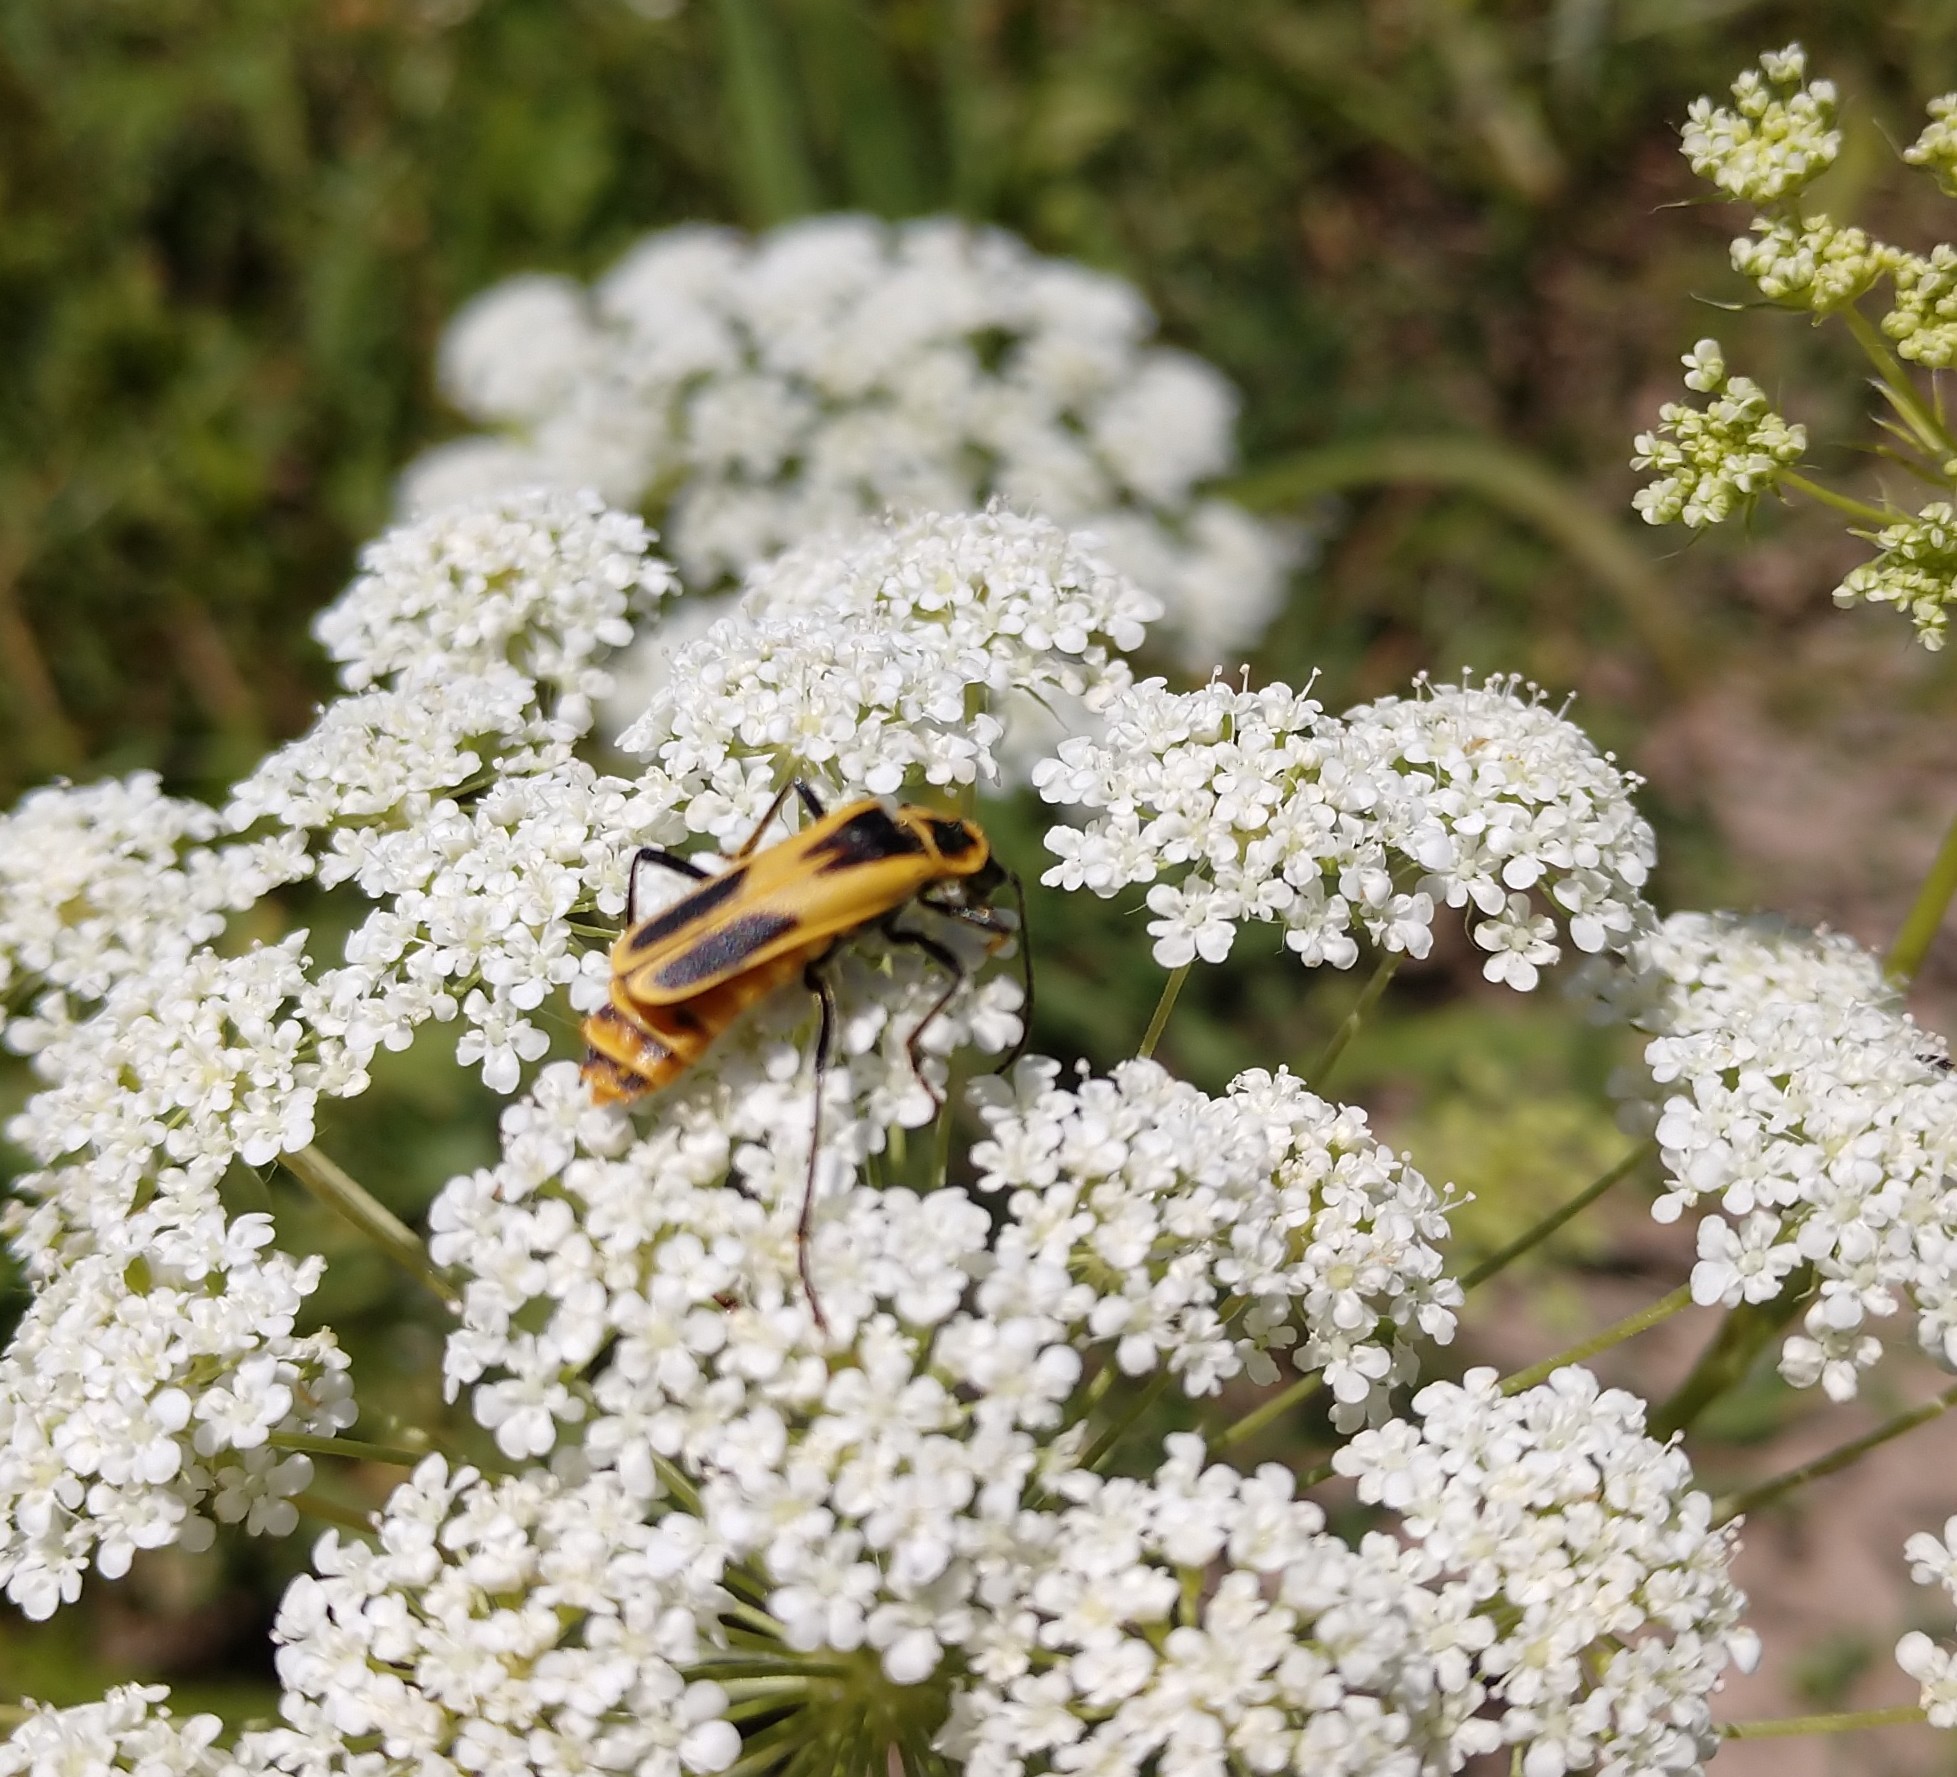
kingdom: Animalia
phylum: Arthropoda
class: Insecta
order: Coleoptera
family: Cantharidae
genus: Chauliognathus
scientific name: Chauliognathus scutellaris
